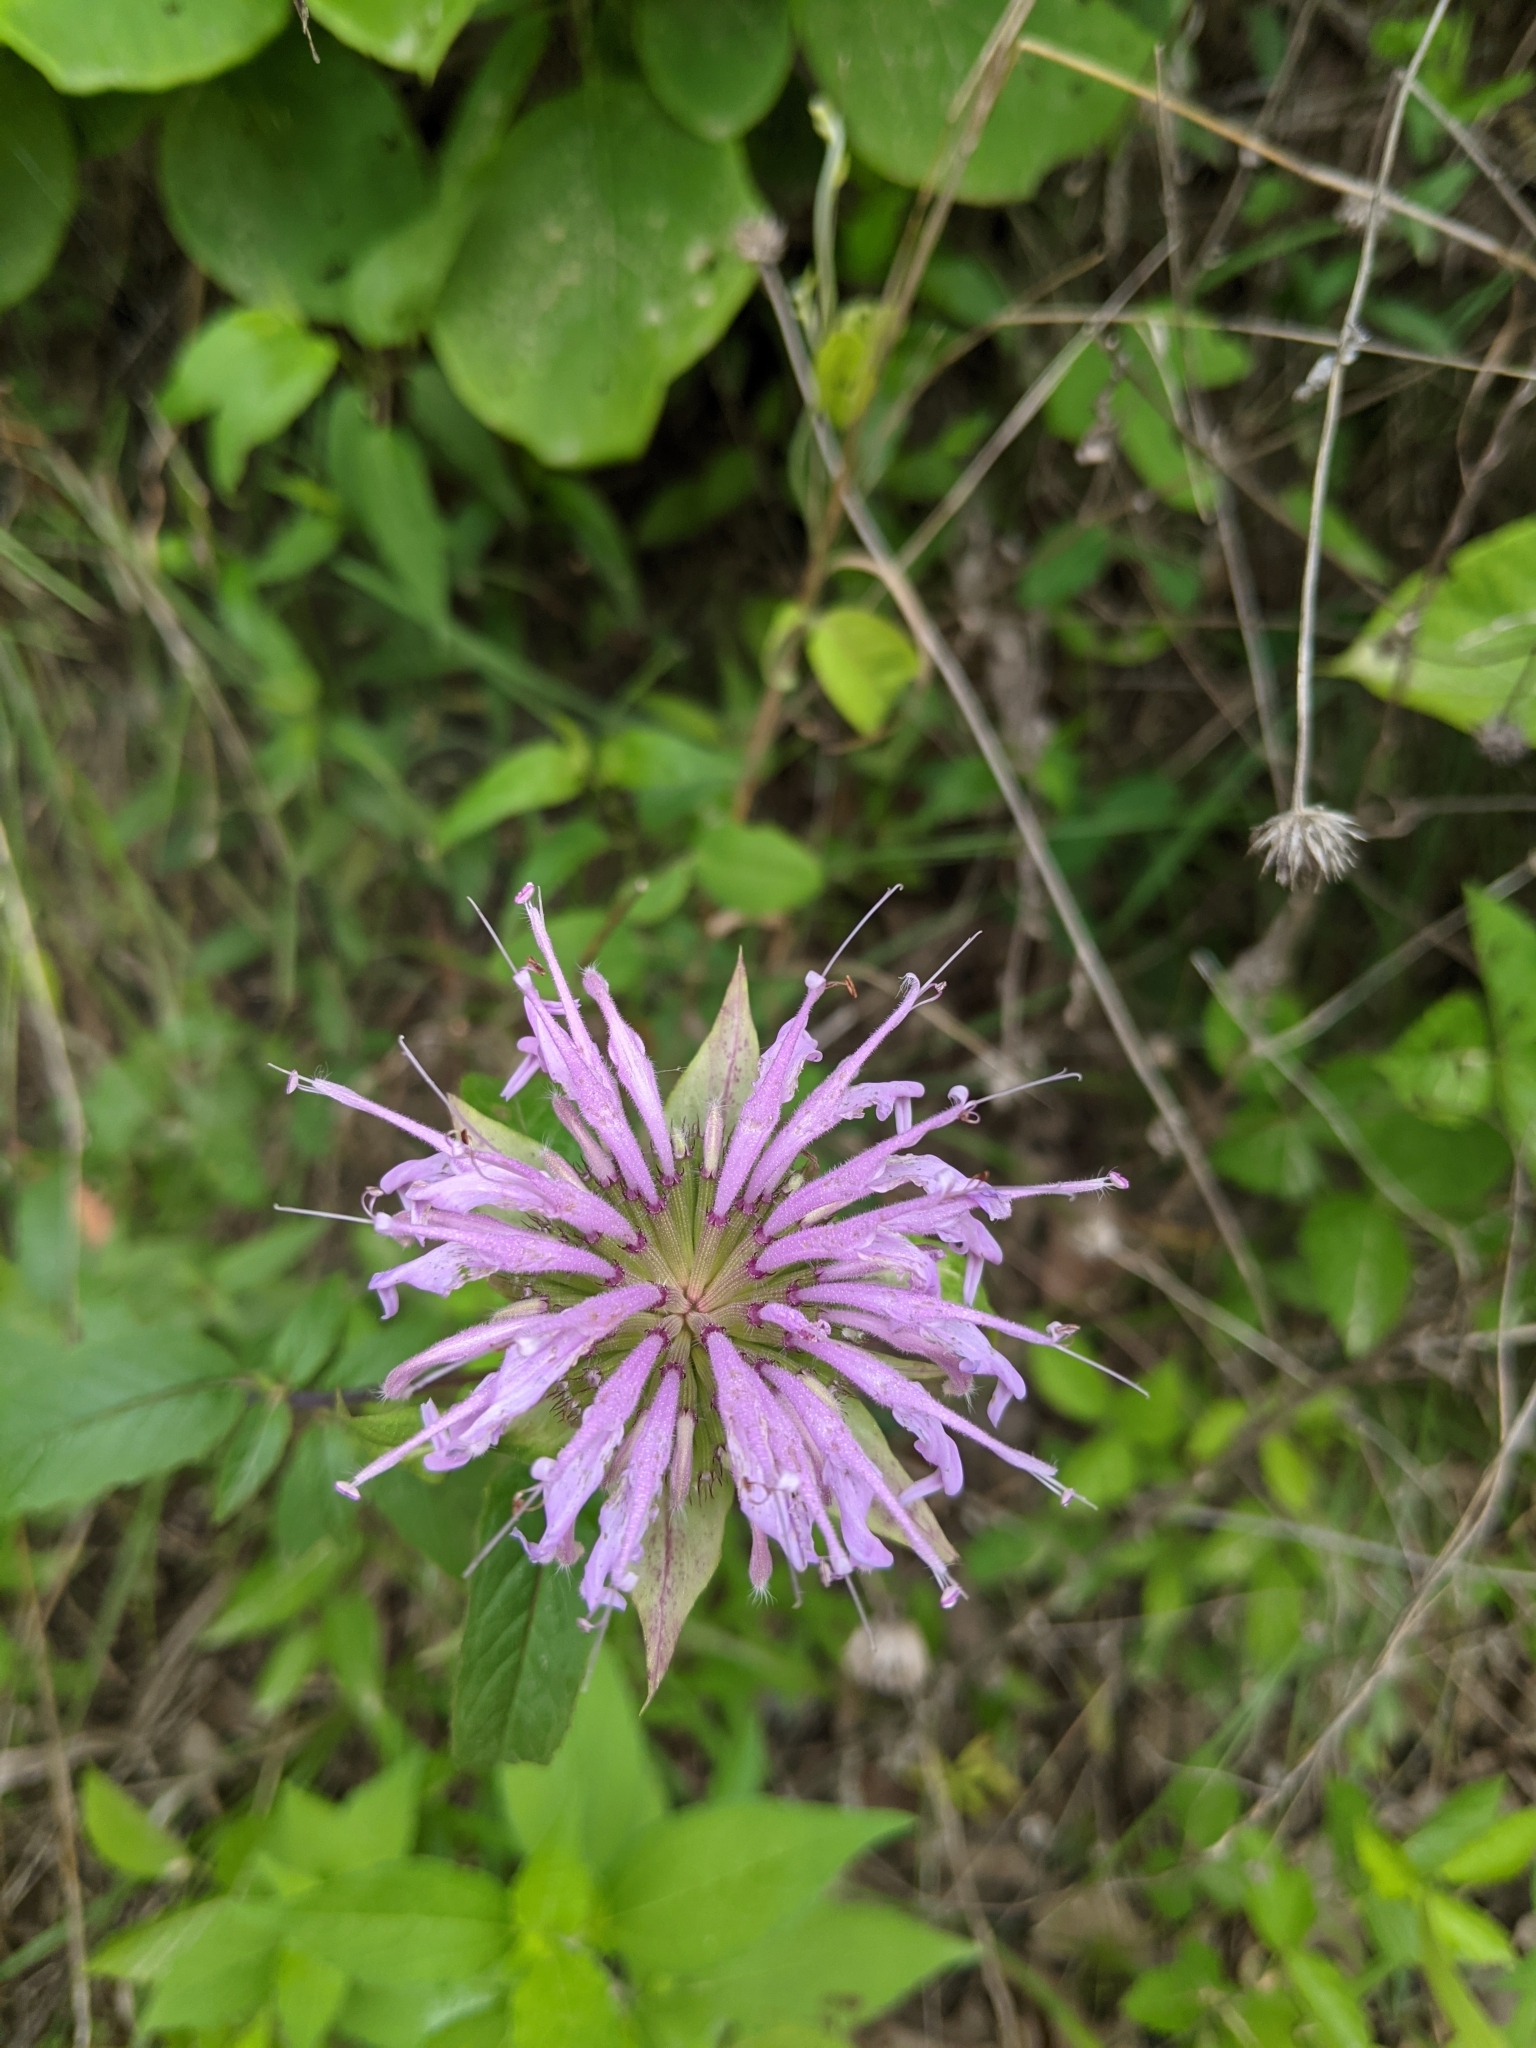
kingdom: Plantae
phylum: Tracheophyta
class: Magnoliopsida
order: Lamiales
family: Lamiaceae
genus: Monarda
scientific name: Monarda fistulosa
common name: Purple beebalm
